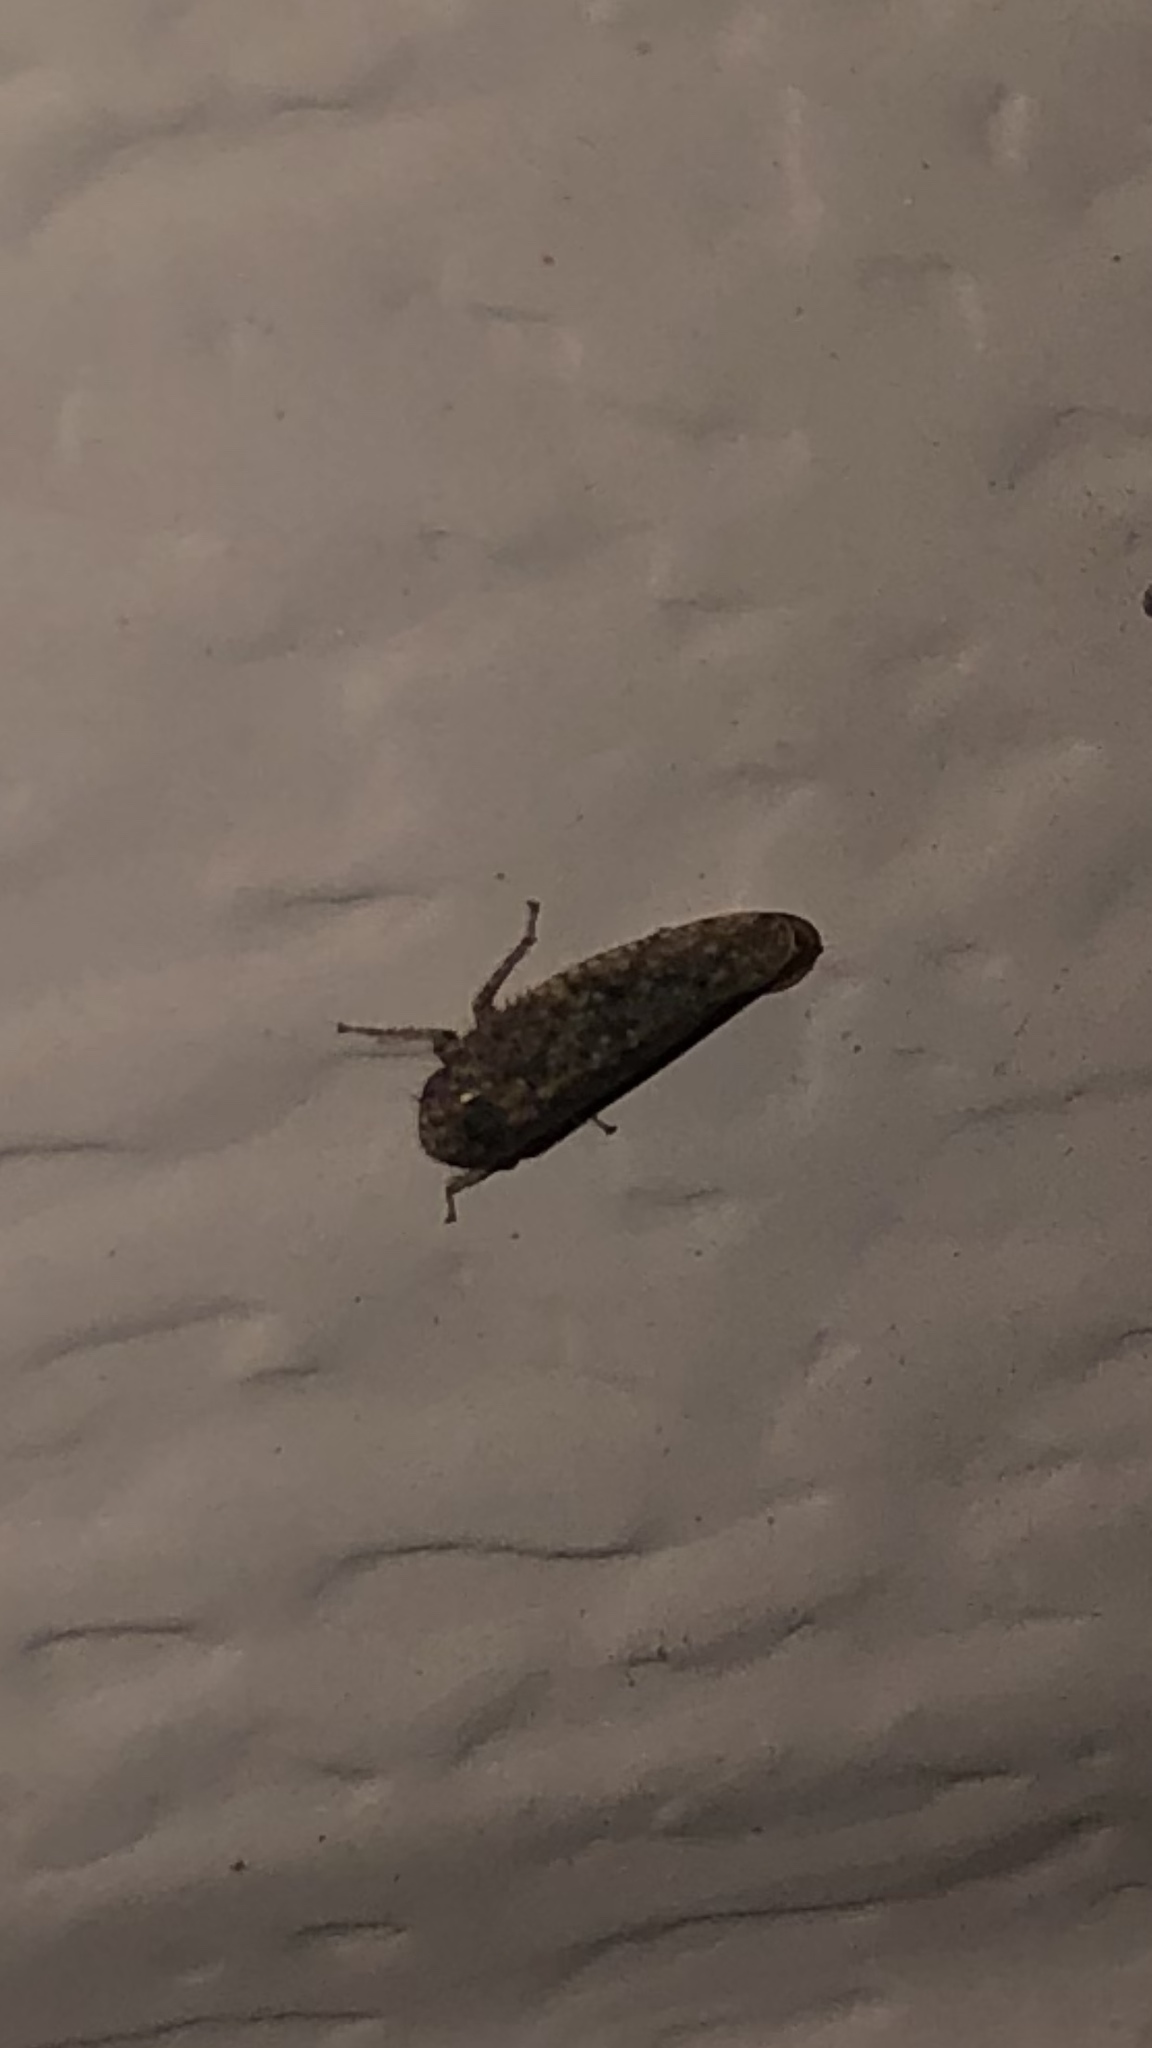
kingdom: Animalia
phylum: Arthropoda
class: Insecta
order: Hemiptera
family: Cicadellidae
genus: Paraphlepsius
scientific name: Paraphlepsius
